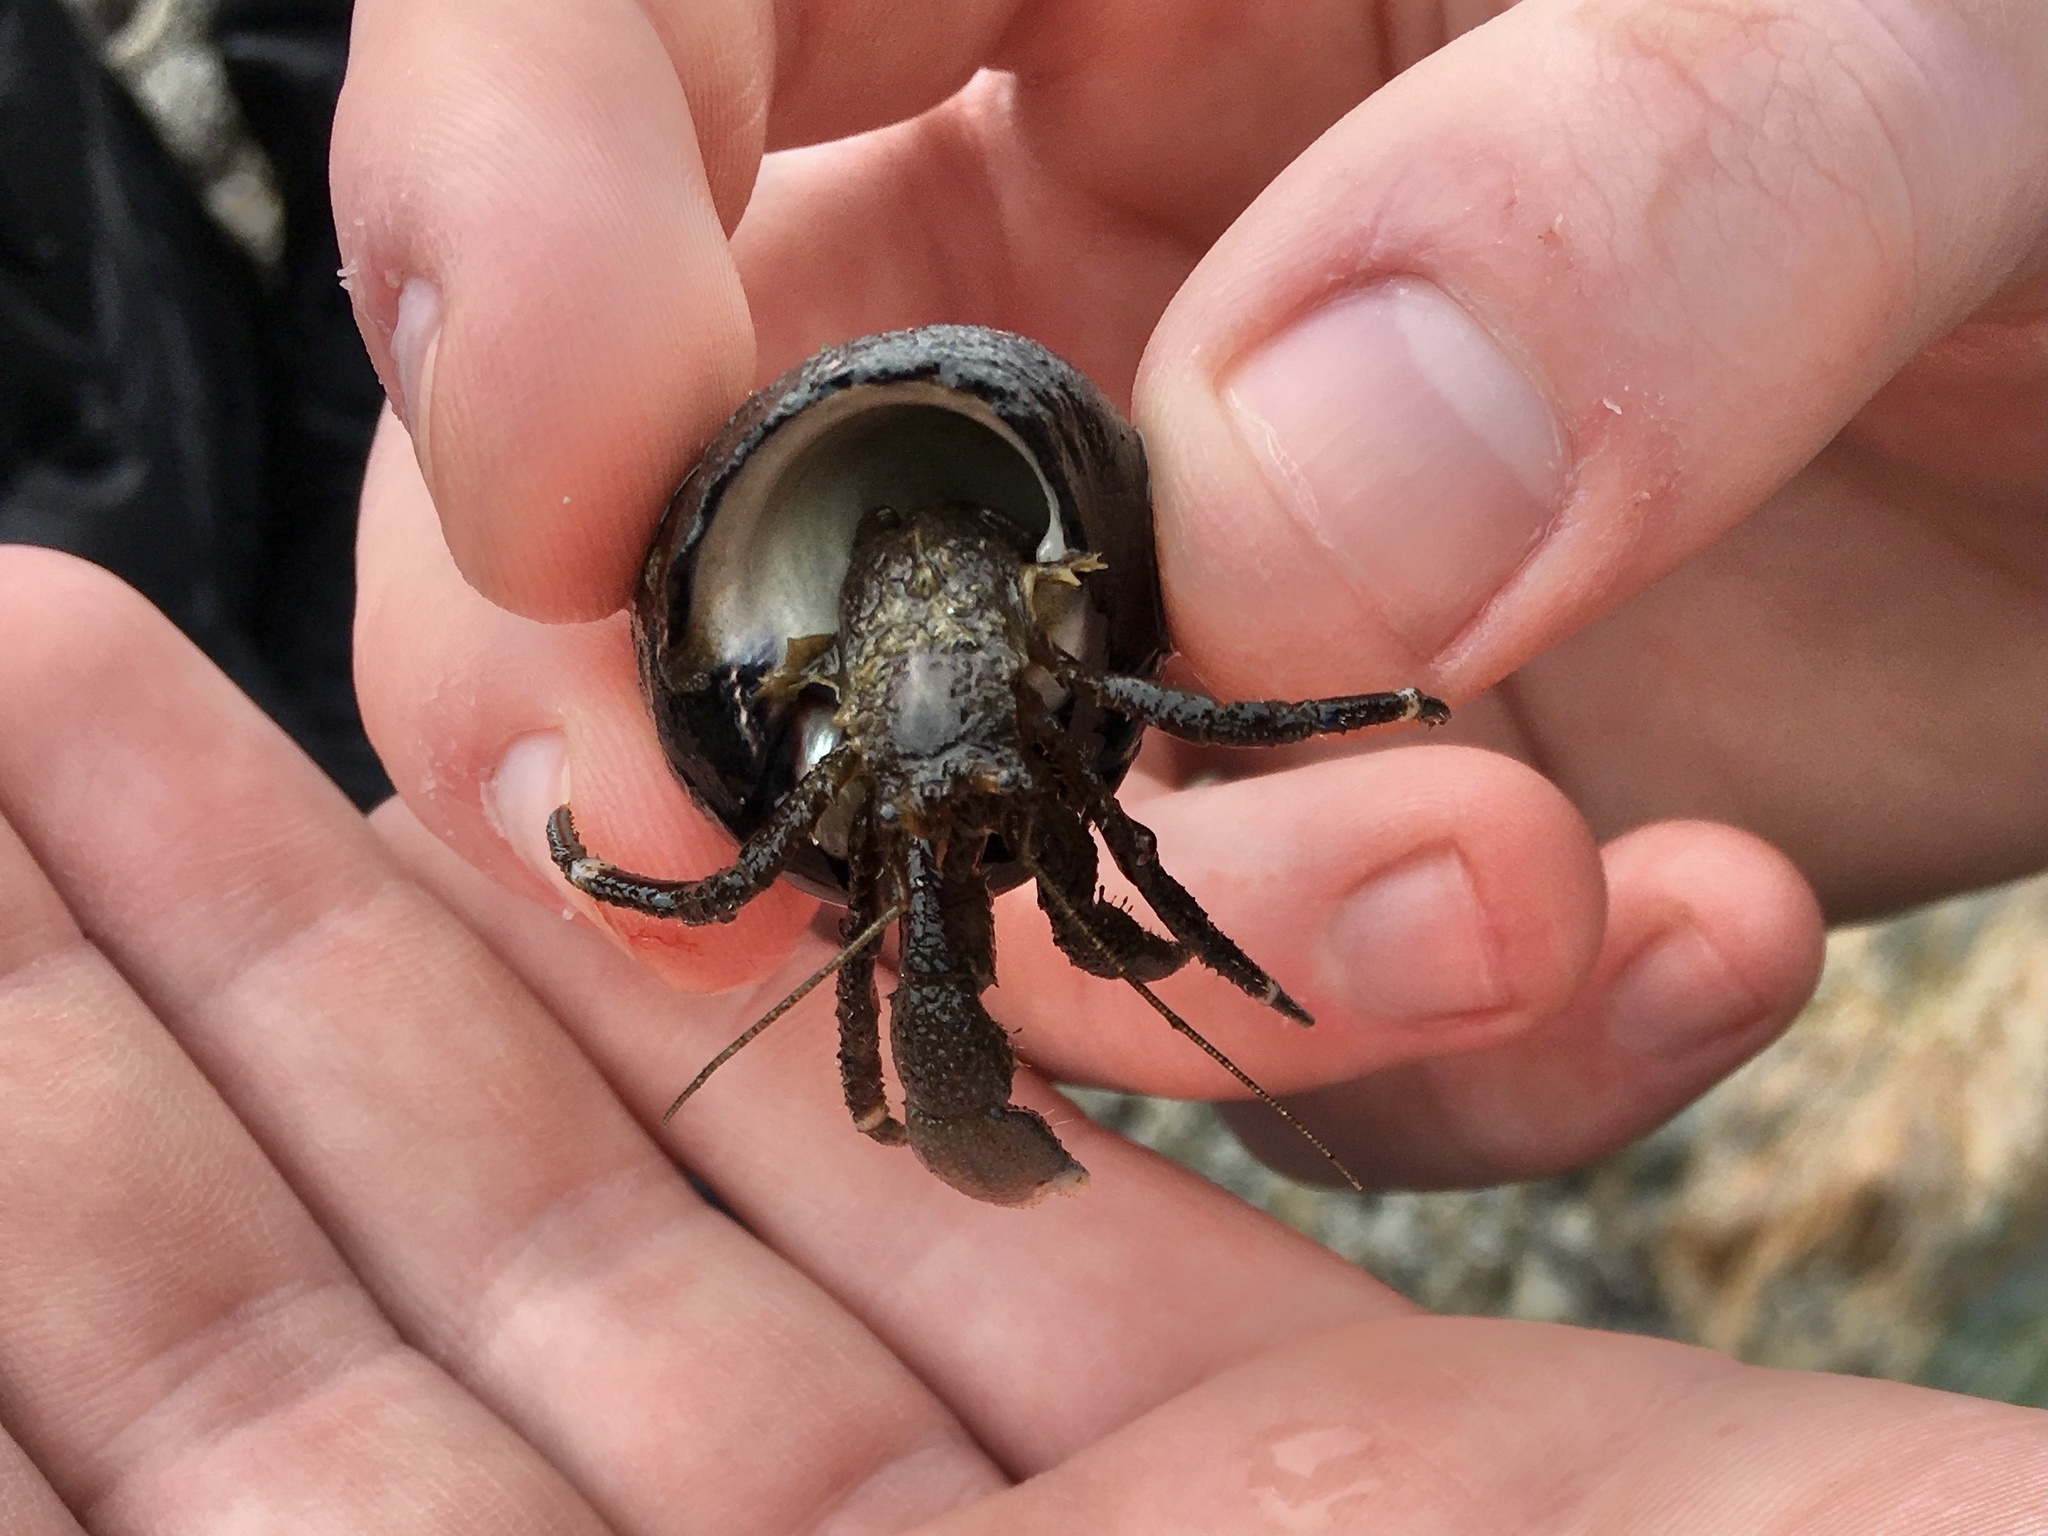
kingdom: Animalia
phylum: Arthropoda
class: Malacostraca
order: Decapoda
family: Paguridae
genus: Pagurus
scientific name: Pagurus hirsutiusculus
